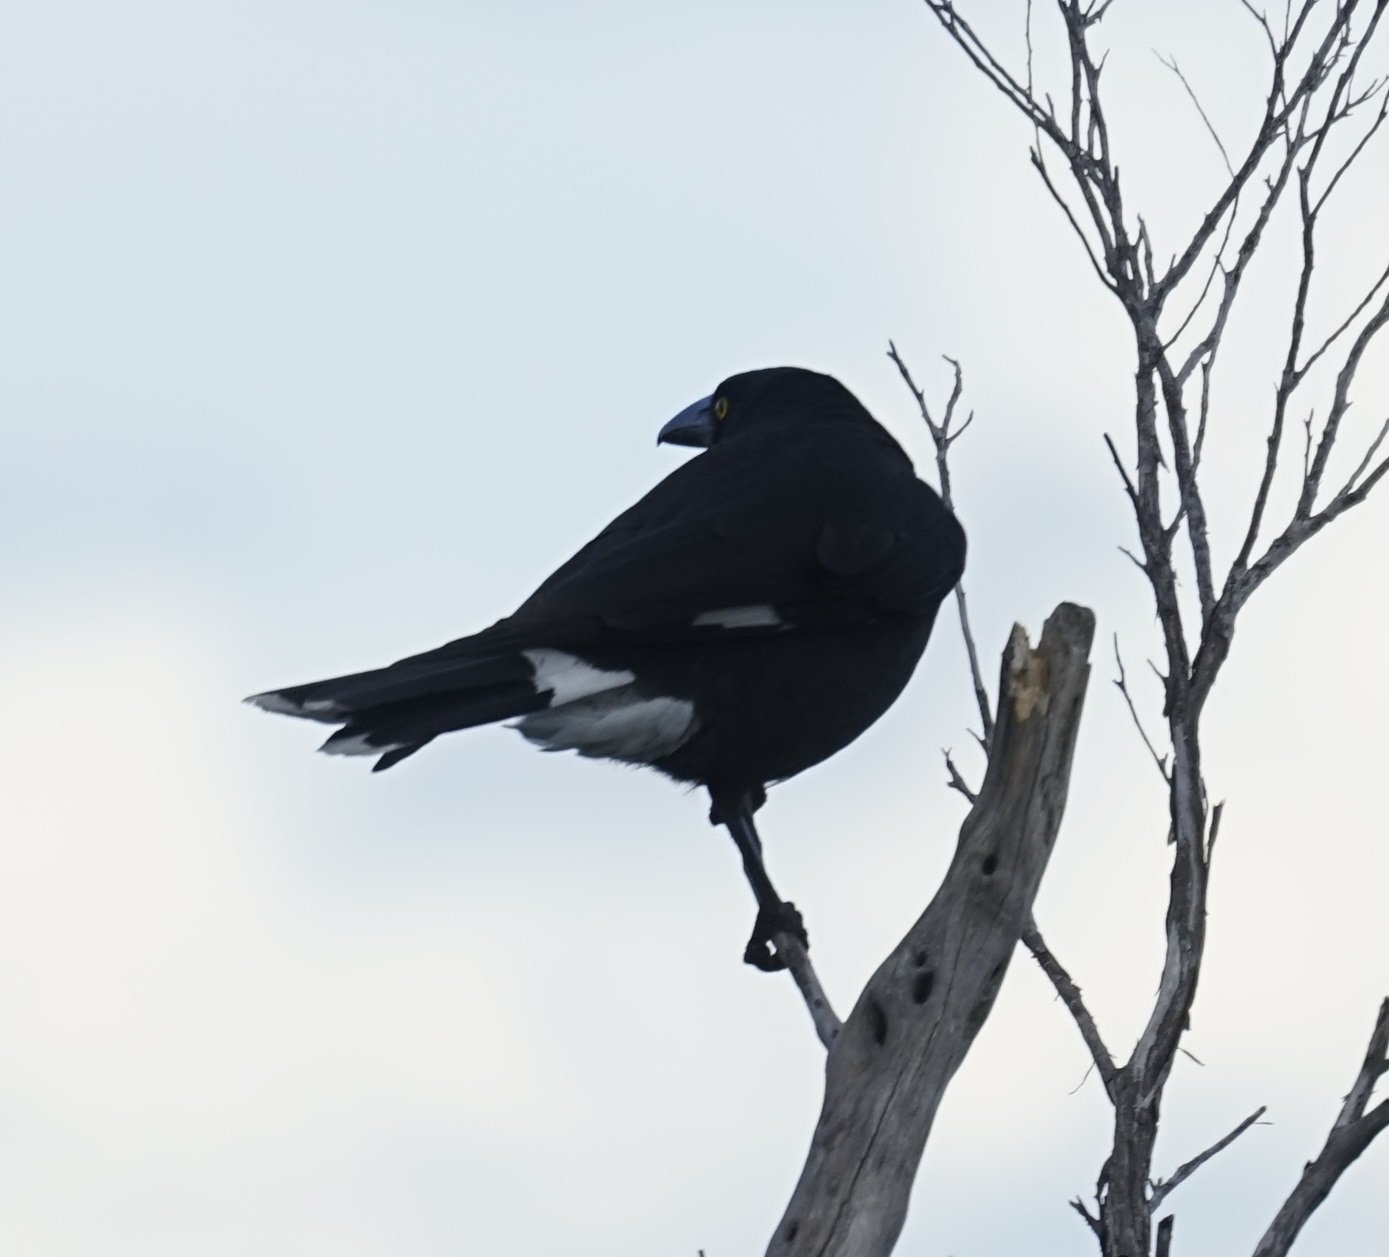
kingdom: Animalia
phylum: Chordata
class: Aves
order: Passeriformes
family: Cracticidae
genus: Strepera
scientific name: Strepera graculina
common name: Pied currawong
